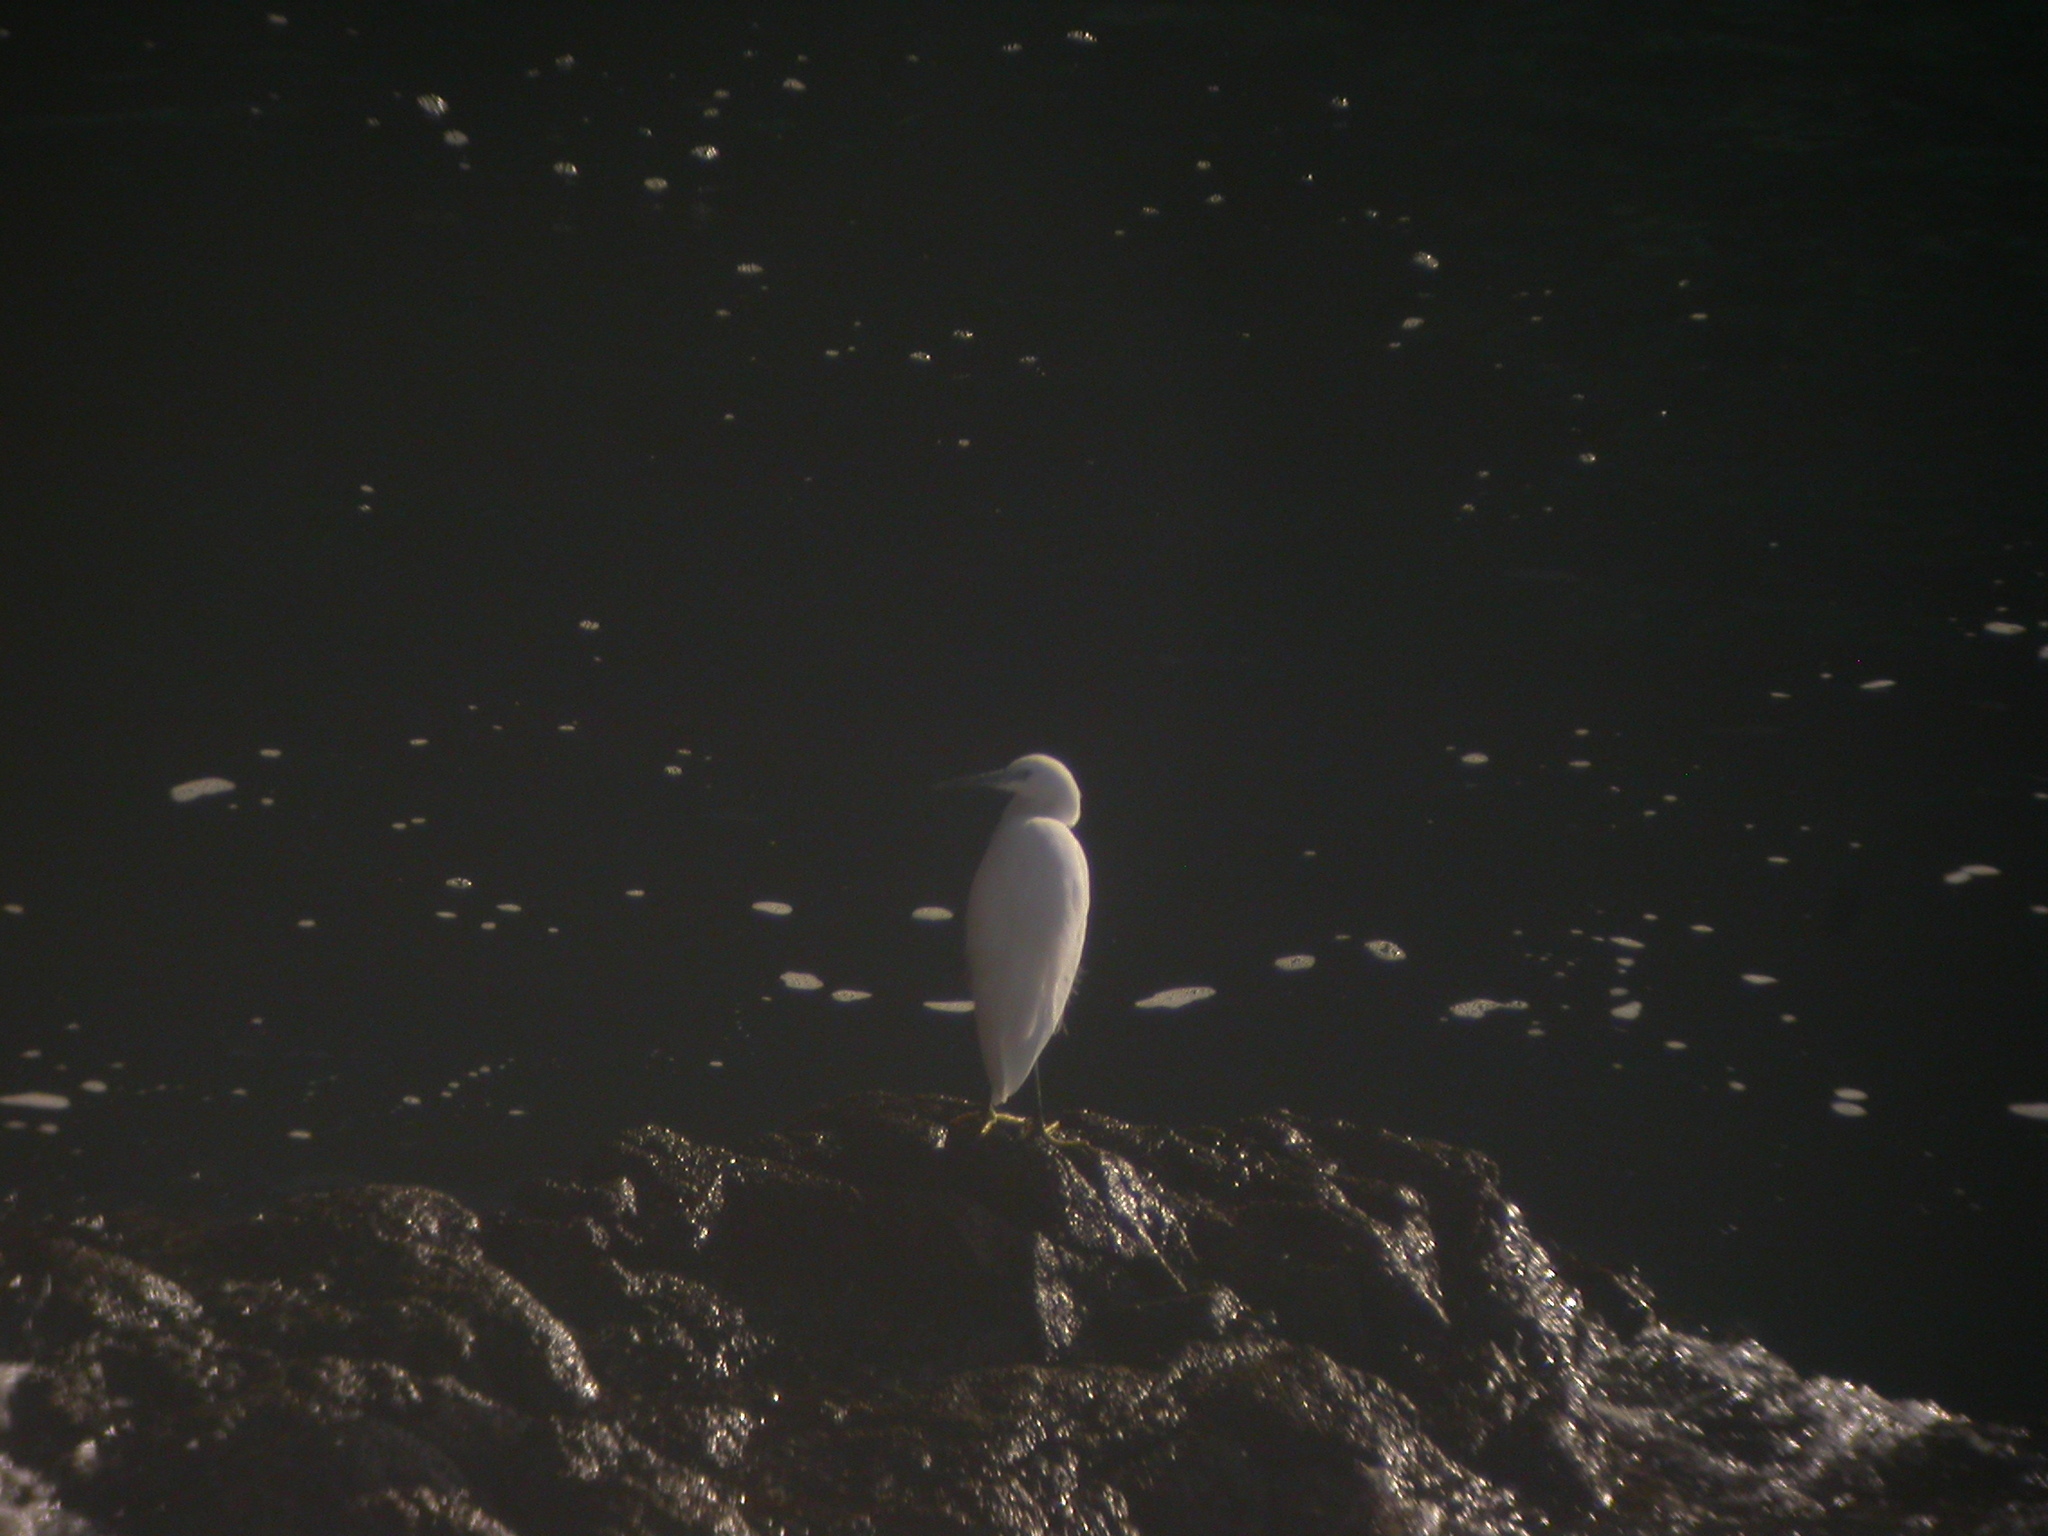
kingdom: Animalia
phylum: Chordata
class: Aves
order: Pelecaniformes
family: Ardeidae
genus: Egretta
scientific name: Egretta garzetta
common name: Little egret
